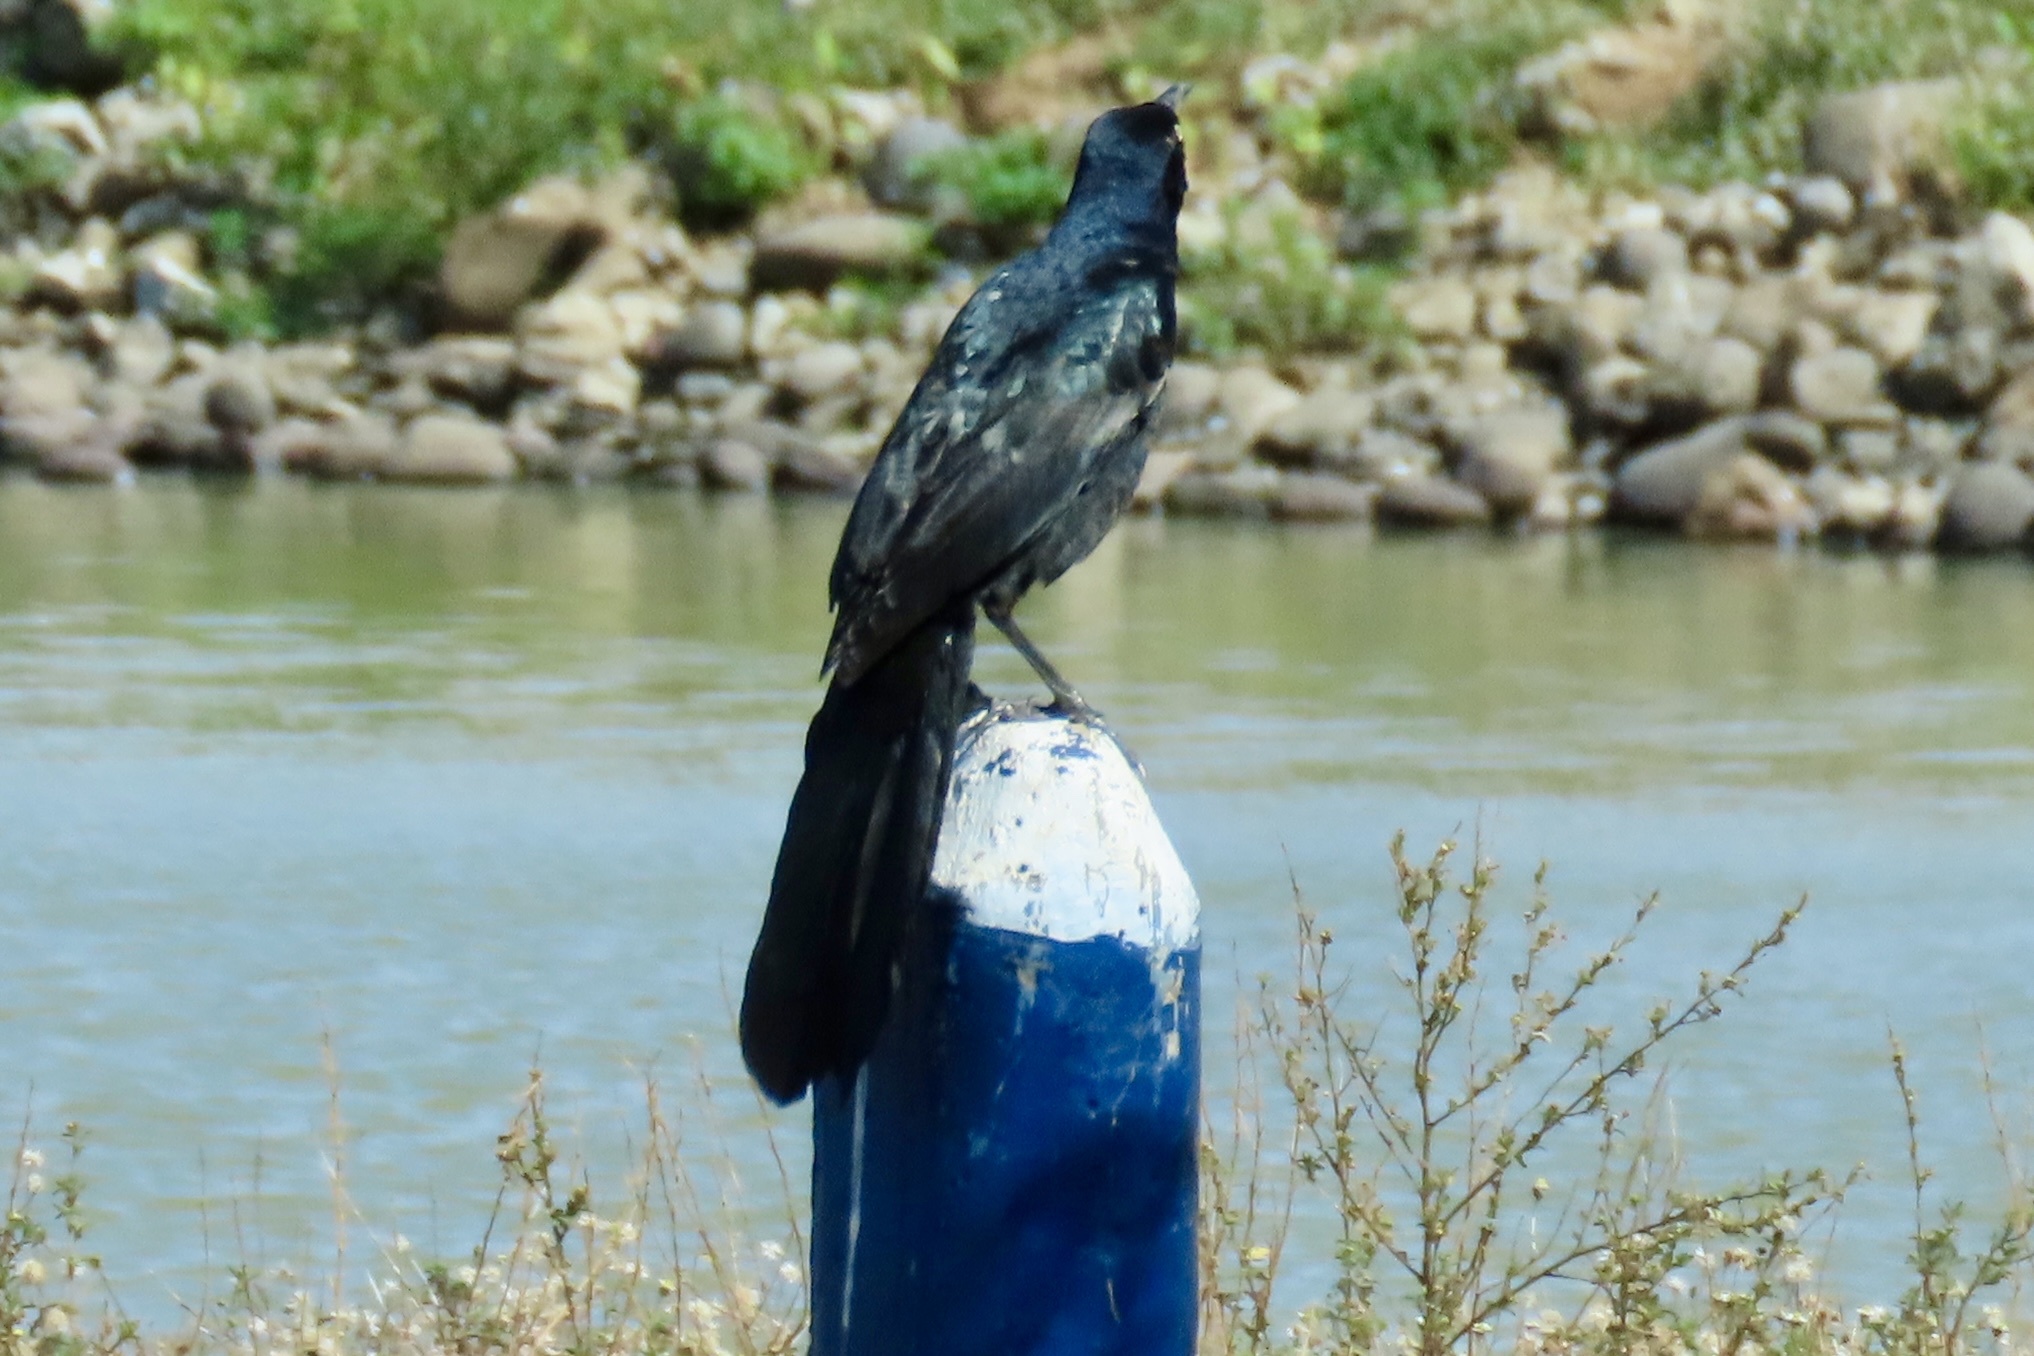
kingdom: Animalia
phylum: Chordata
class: Aves
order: Passeriformes
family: Icteridae
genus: Quiscalus
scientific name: Quiscalus mexicanus
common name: Great-tailed grackle
